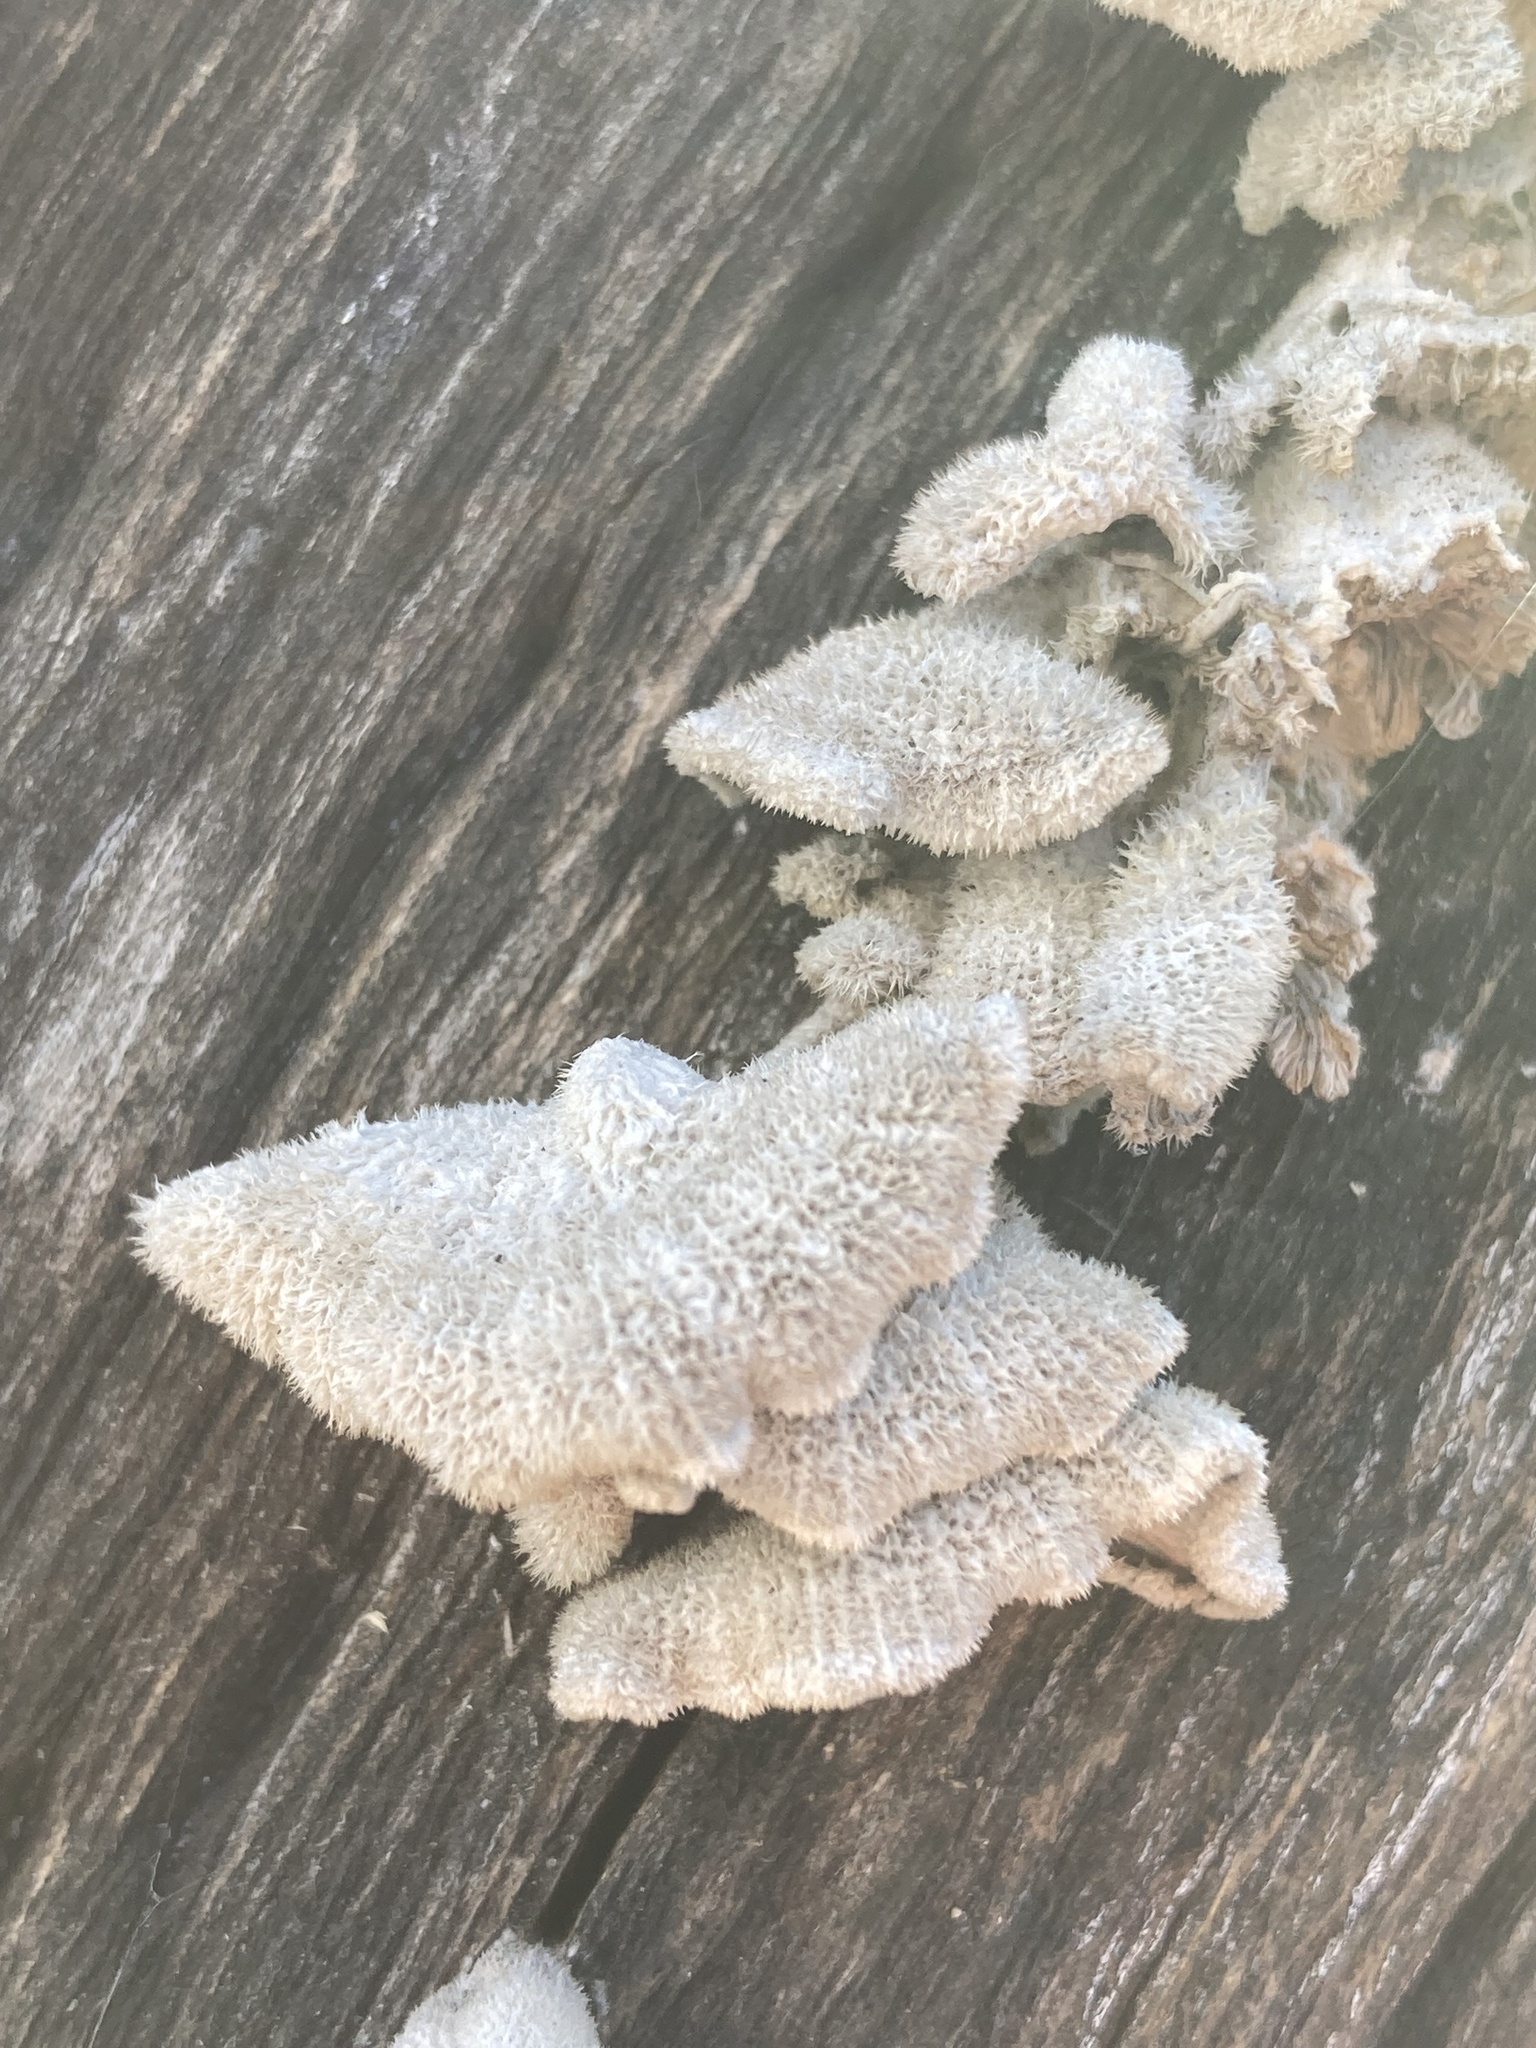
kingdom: Fungi
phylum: Basidiomycota
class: Agaricomycetes
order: Agaricales
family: Schizophyllaceae
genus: Schizophyllum
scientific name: Schizophyllum commune
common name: Common porecrust
